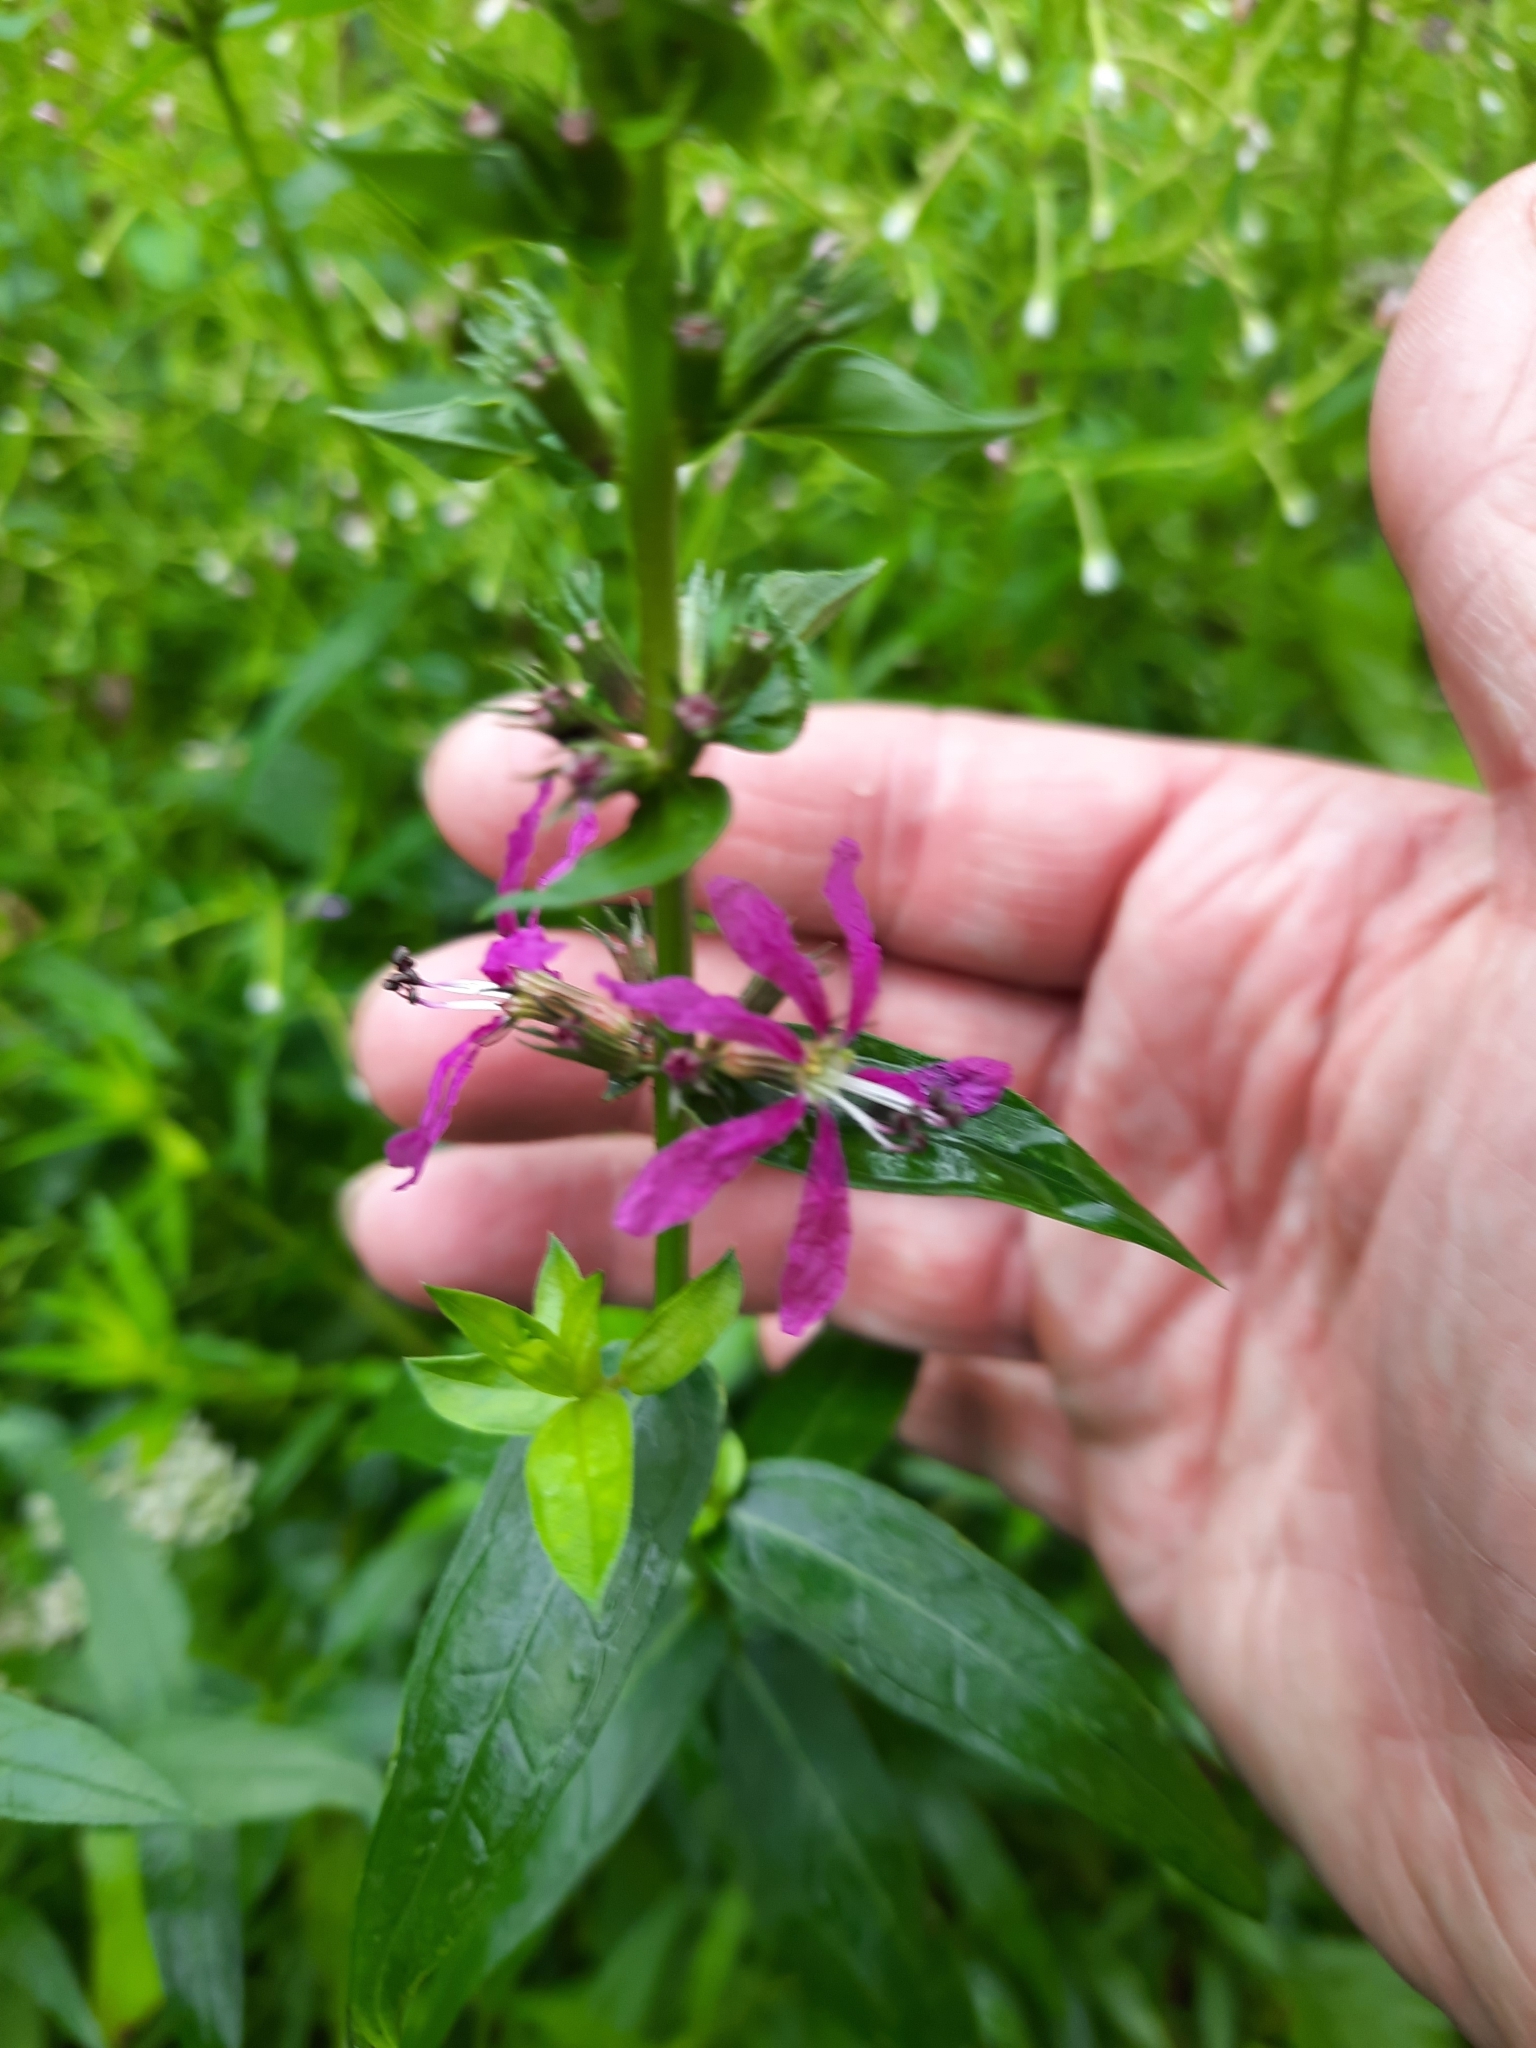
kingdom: Plantae
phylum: Tracheophyta
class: Magnoliopsida
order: Myrtales
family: Lythraceae
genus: Lythrum
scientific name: Lythrum salicaria
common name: Purple loosestrife
